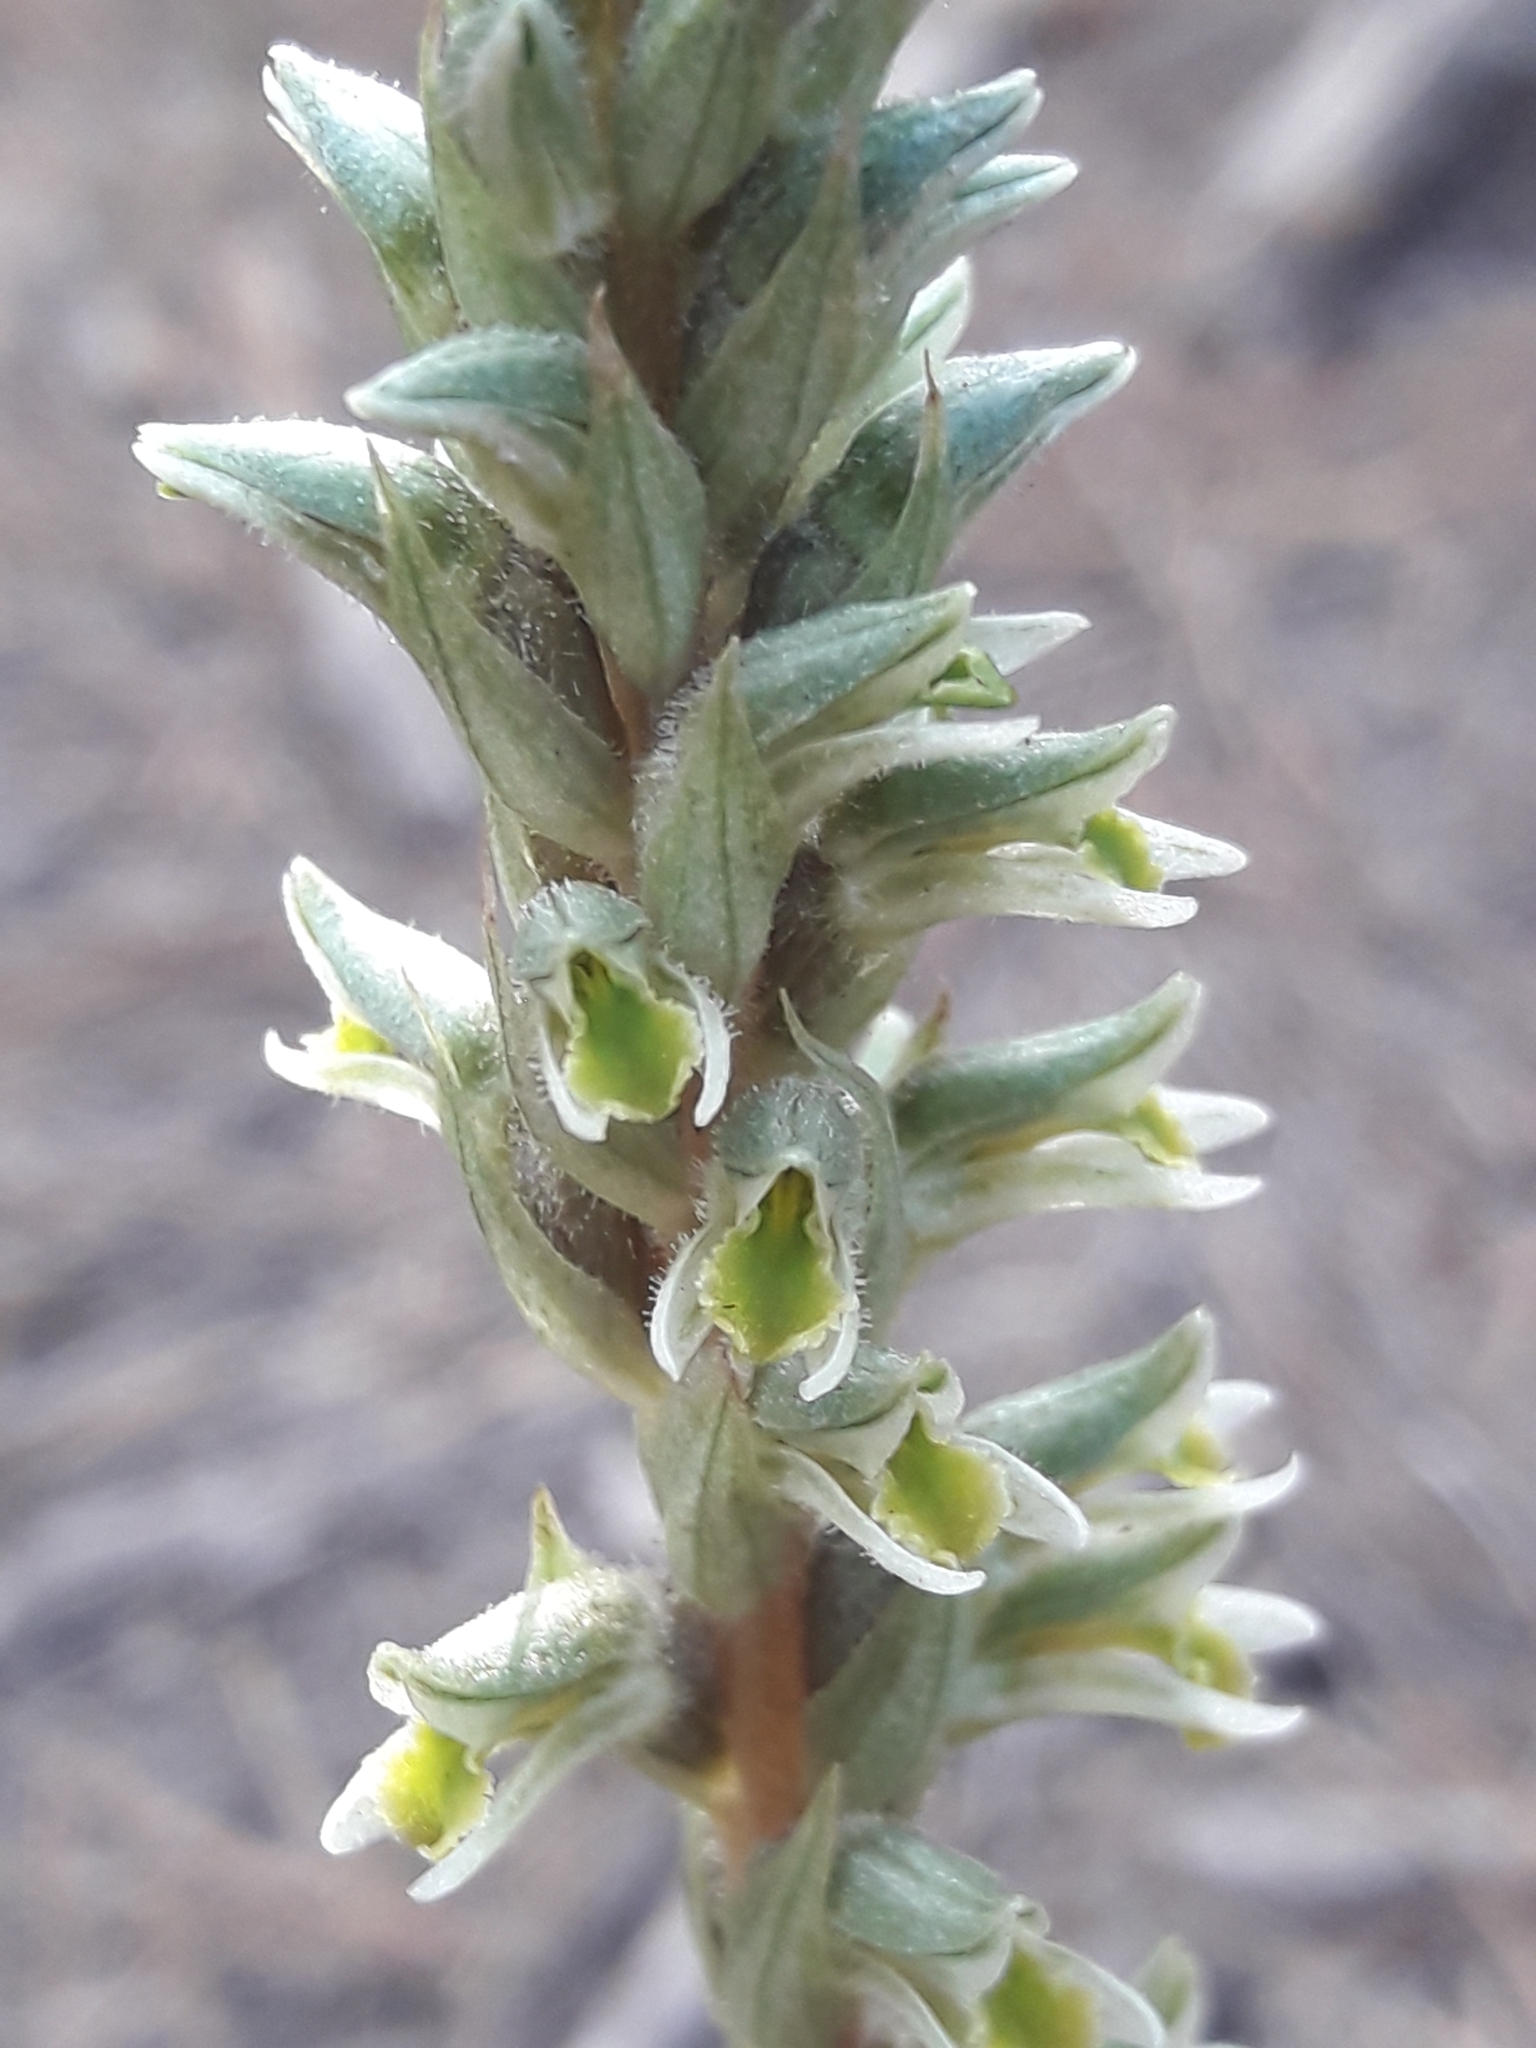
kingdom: Plantae
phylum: Tracheophyta
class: Liliopsida
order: Asparagales
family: Orchidaceae
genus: Brachystele
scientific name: Brachystele unilateralis
